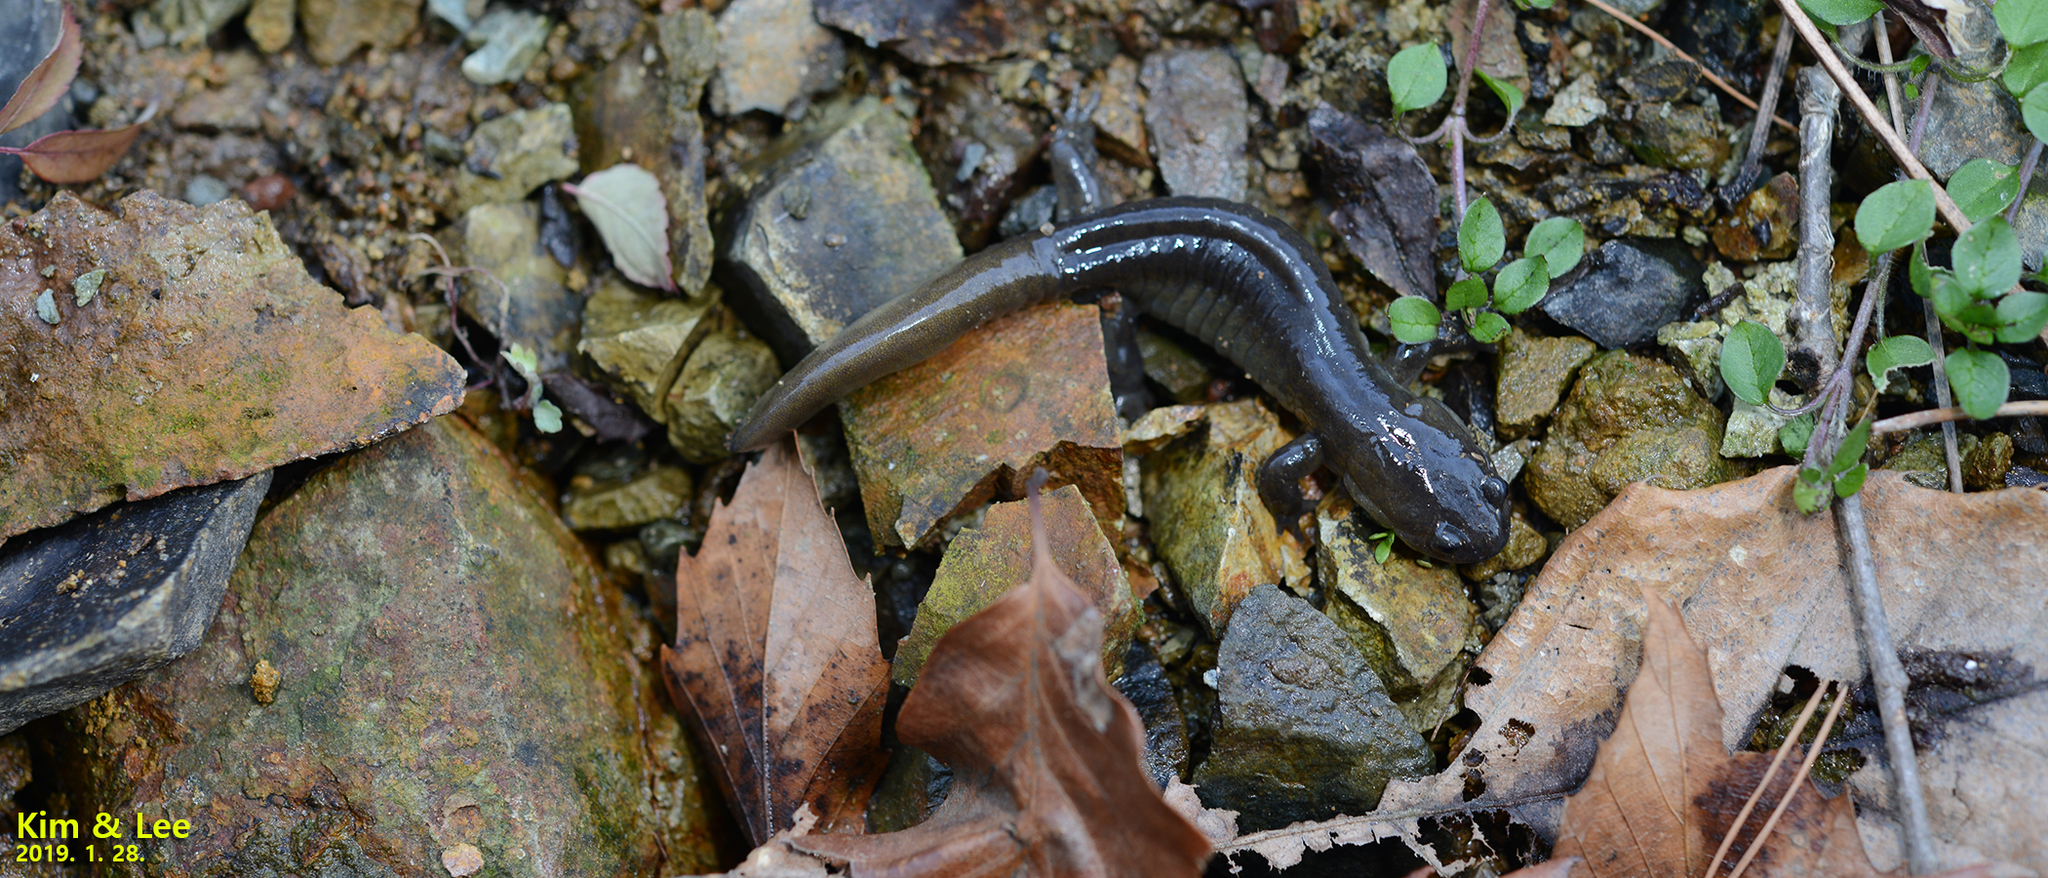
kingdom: Animalia
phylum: Chordata
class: Amphibia
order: Caudata
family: Hynobiidae
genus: Hynobius
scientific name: Hynobius yangi
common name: Yangi salamander
